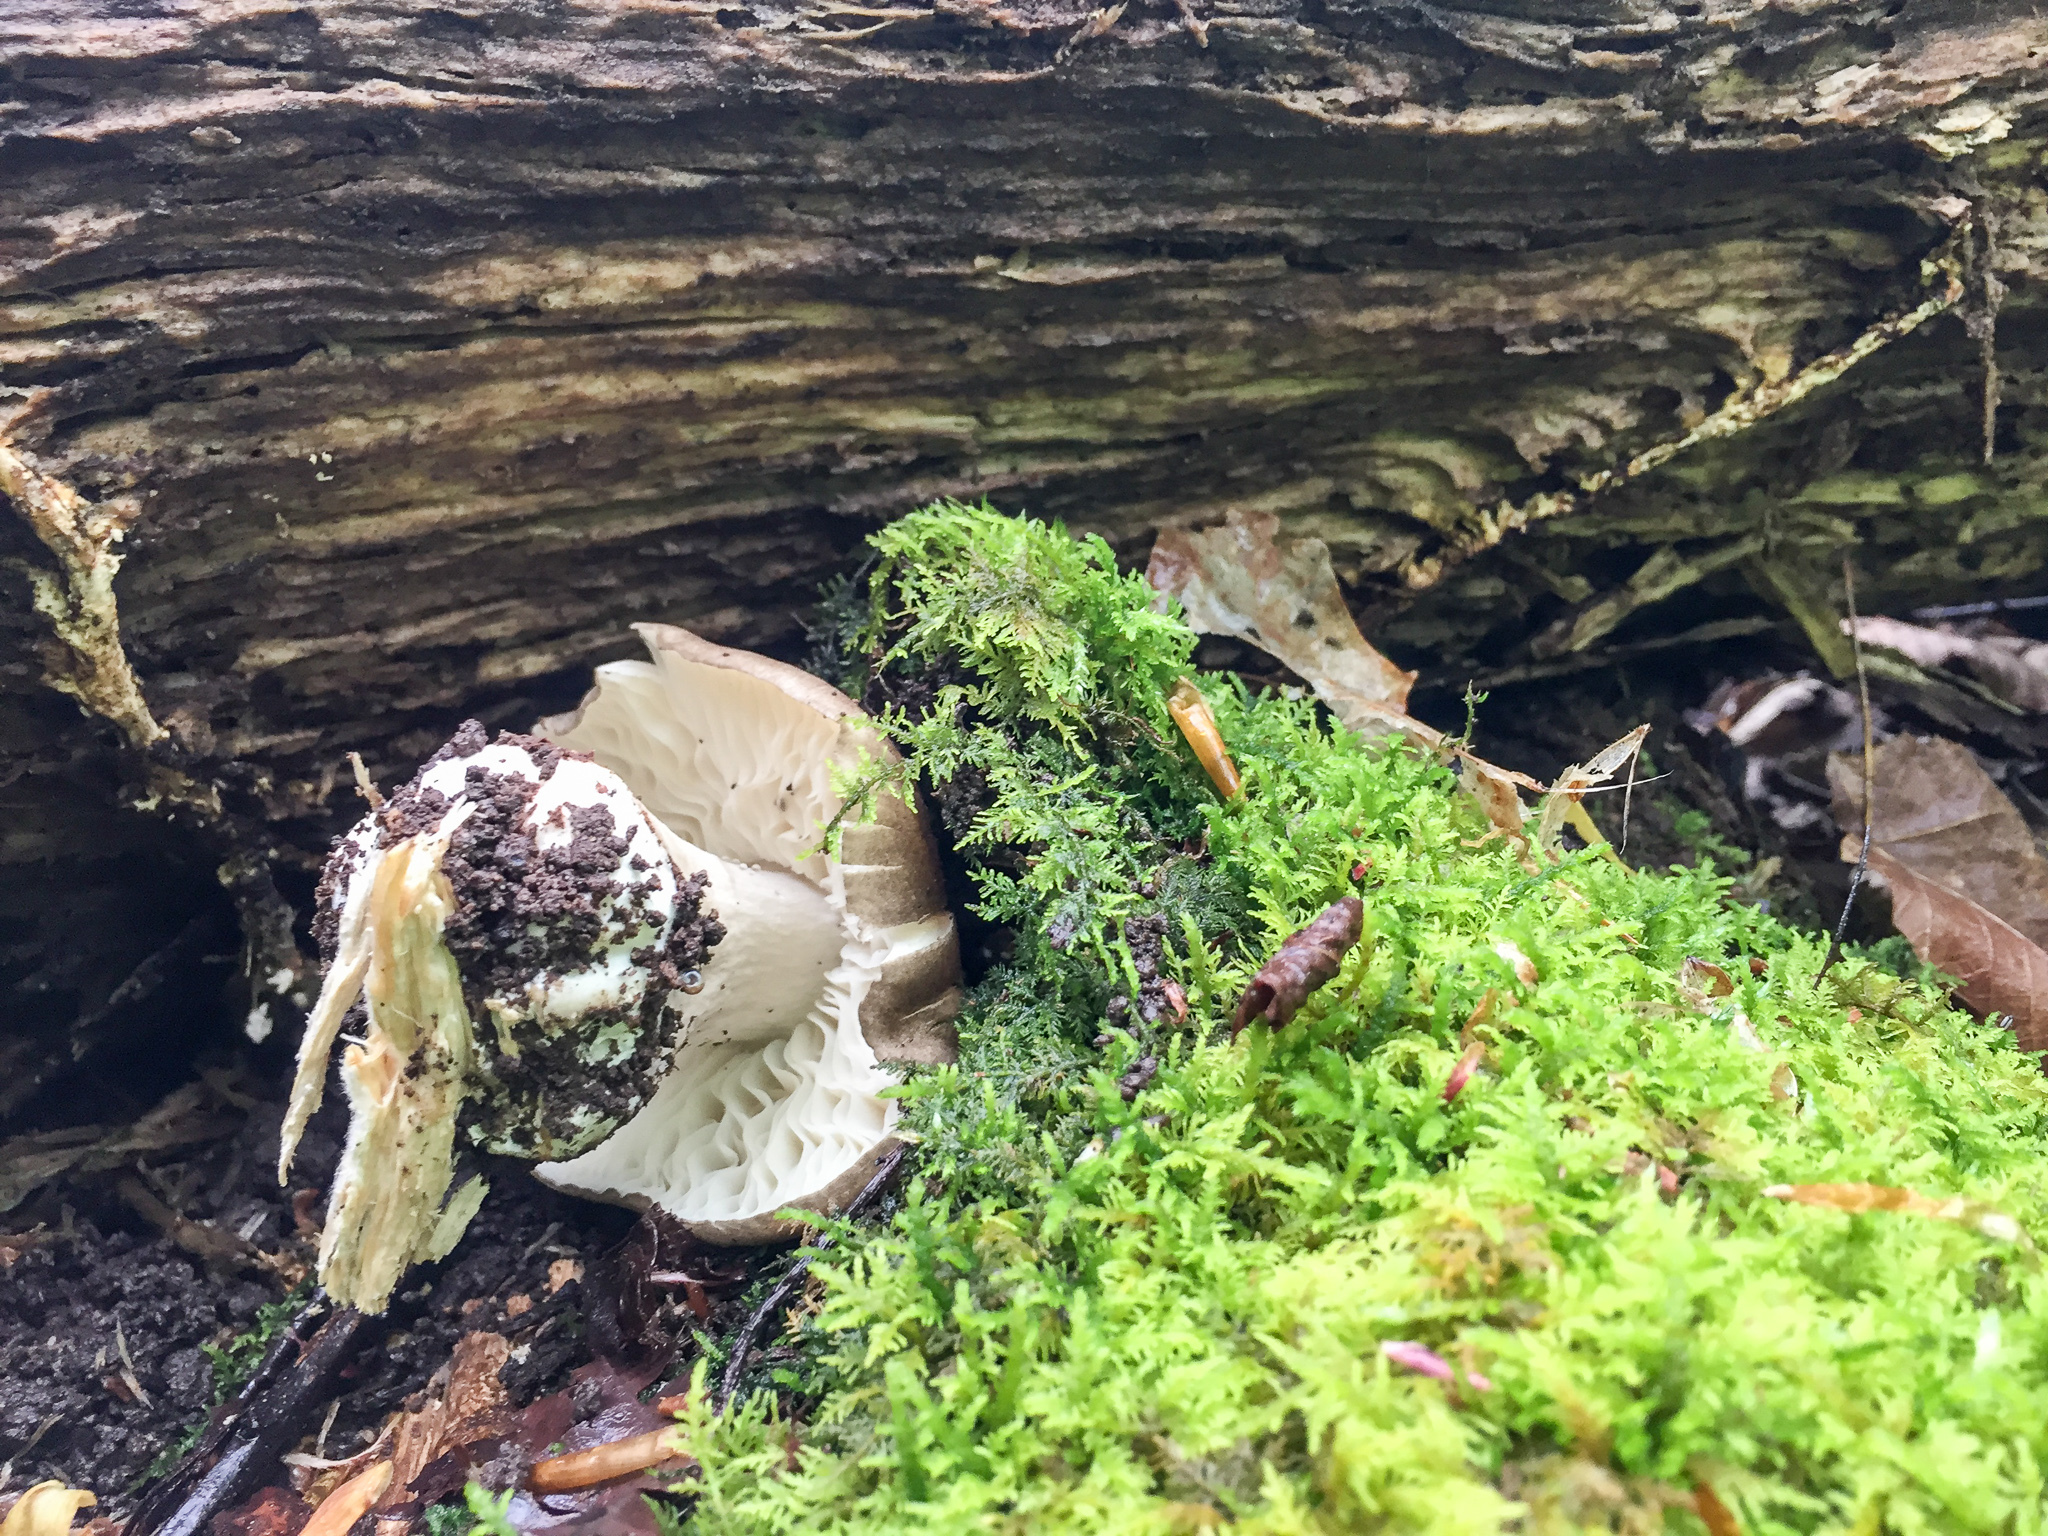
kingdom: Fungi
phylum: Basidiomycota
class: Agaricomycetes
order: Agaricales
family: Tricholomataceae
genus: Megacollybia
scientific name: Megacollybia rodmanii
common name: Eastern american platterful mushroom
